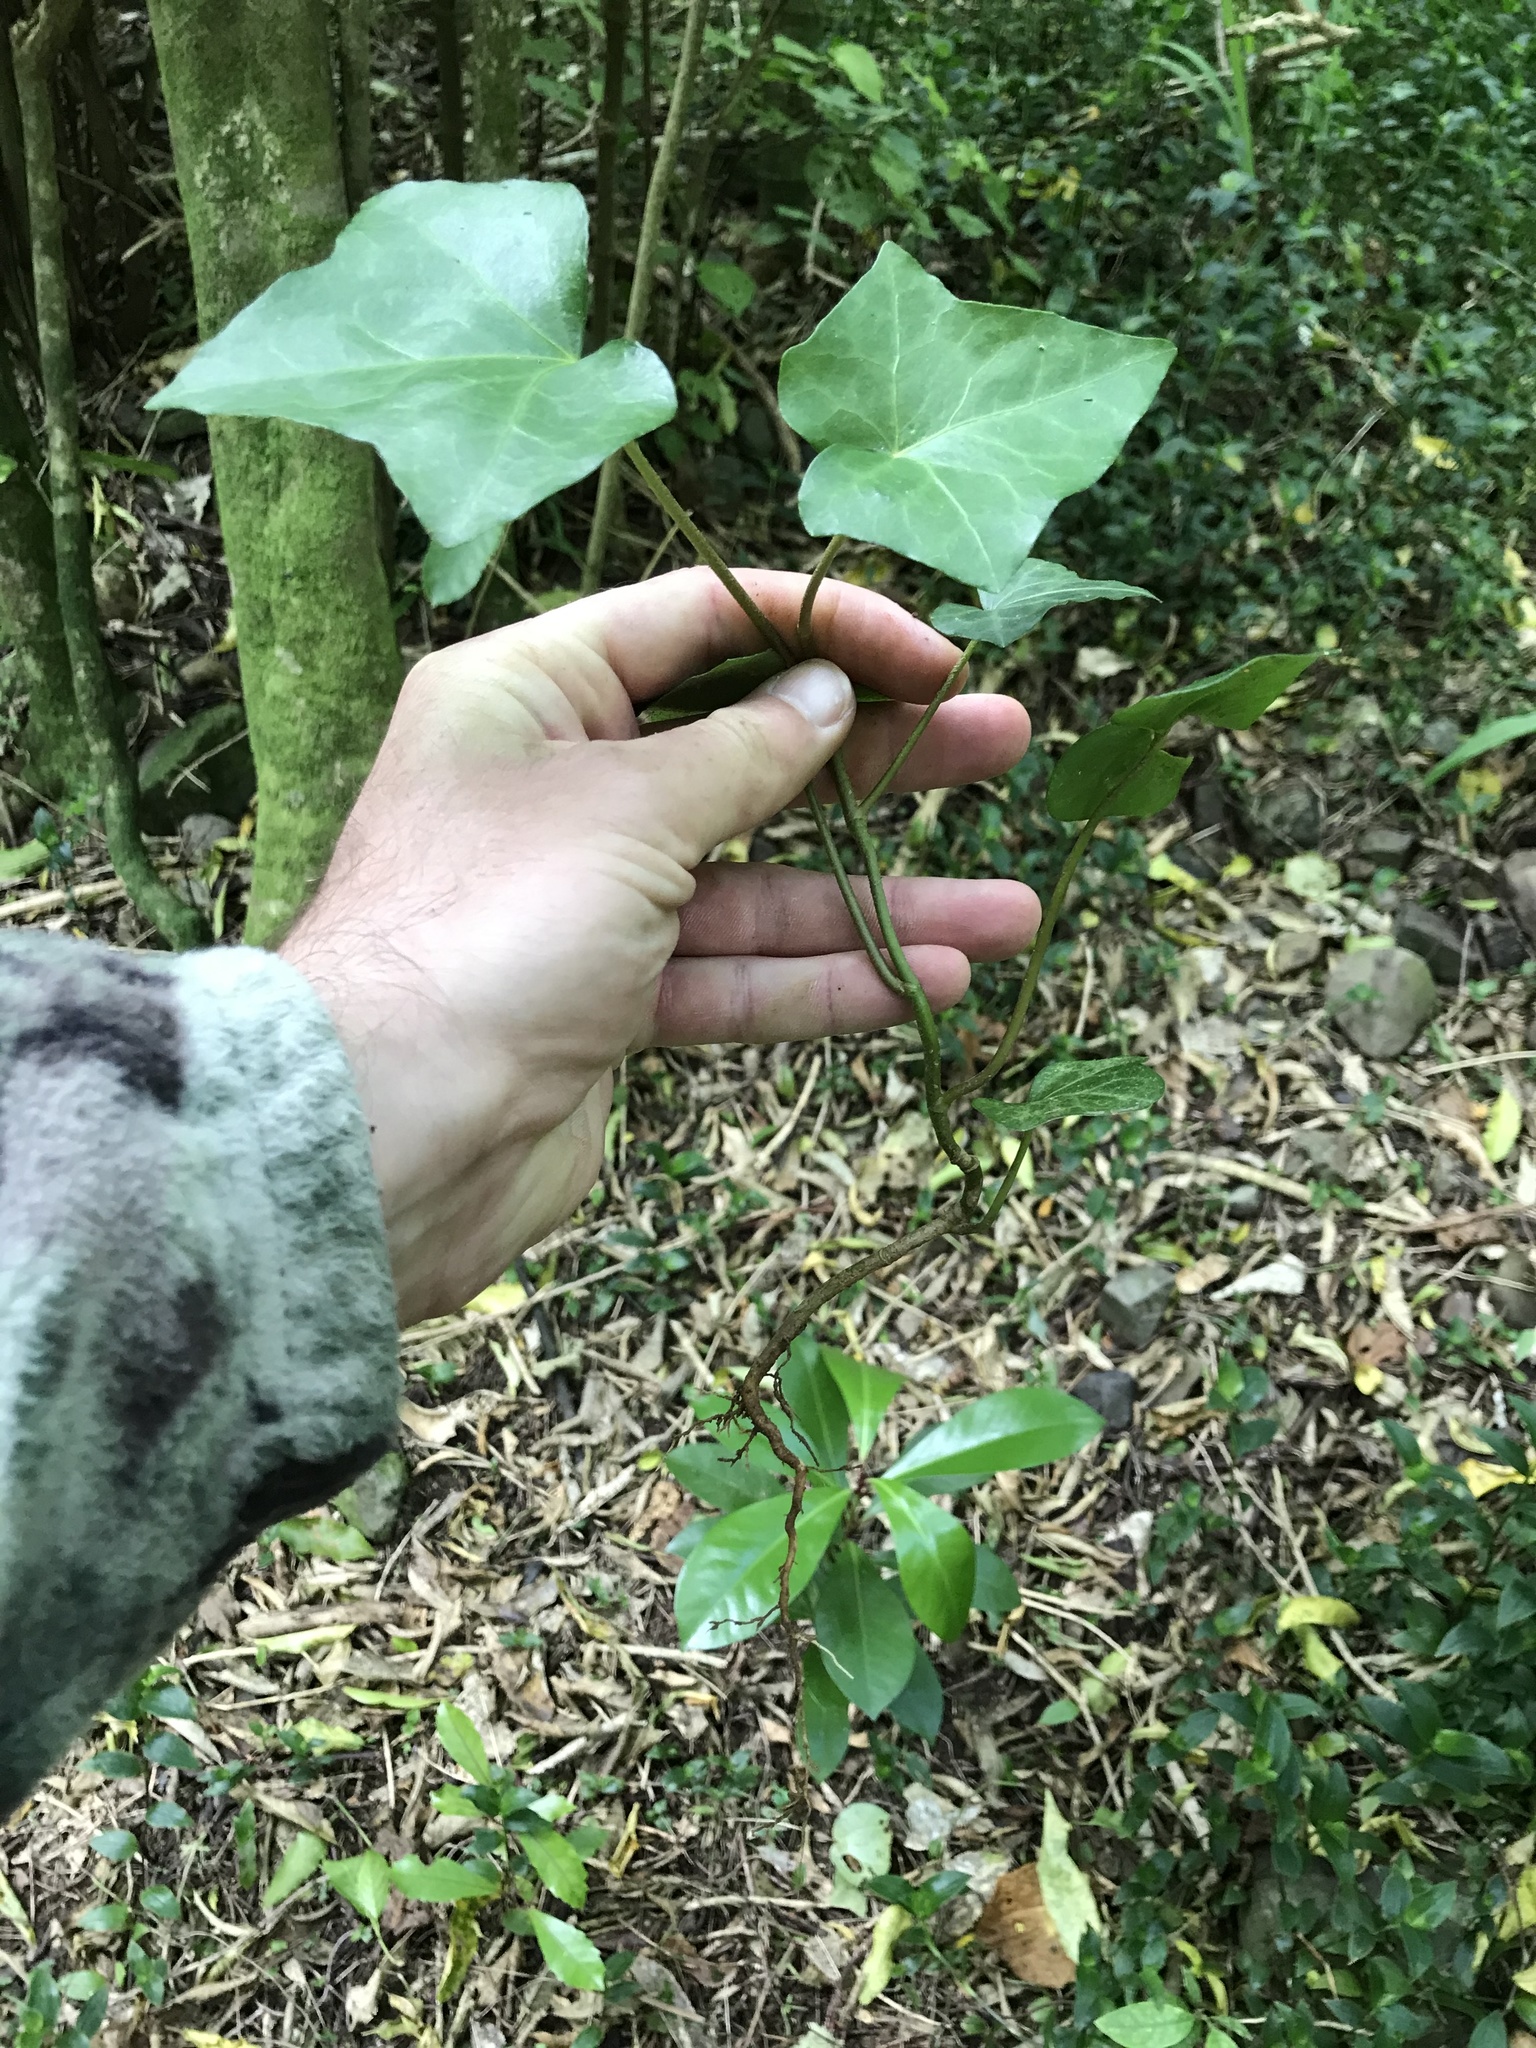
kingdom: Plantae
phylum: Tracheophyta
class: Magnoliopsida
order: Apiales
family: Araliaceae
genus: Hedera
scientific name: Hedera helix
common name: Ivy
